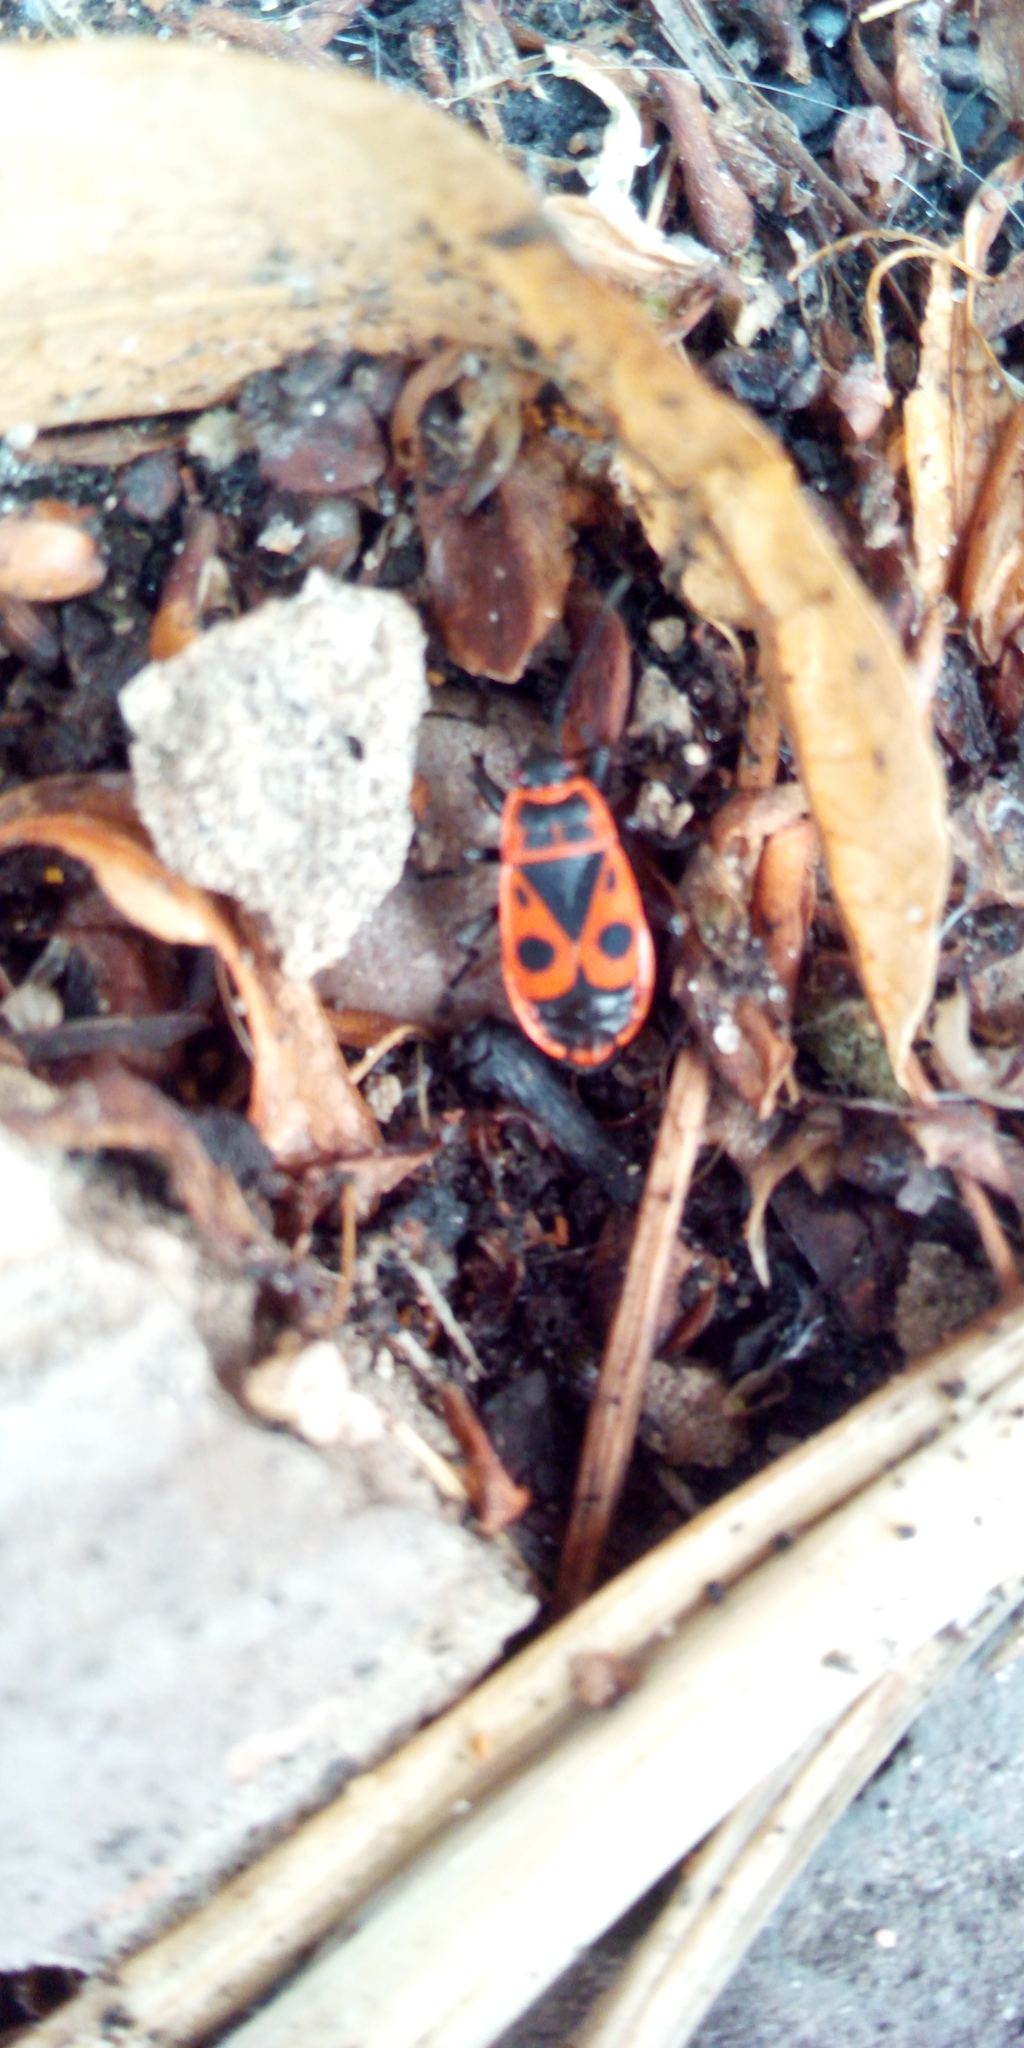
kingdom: Animalia
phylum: Arthropoda
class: Insecta
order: Hemiptera
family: Pyrrhocoridae
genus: Pyrrhocoris
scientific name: Pyrrhocoris apterus
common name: Firebug
